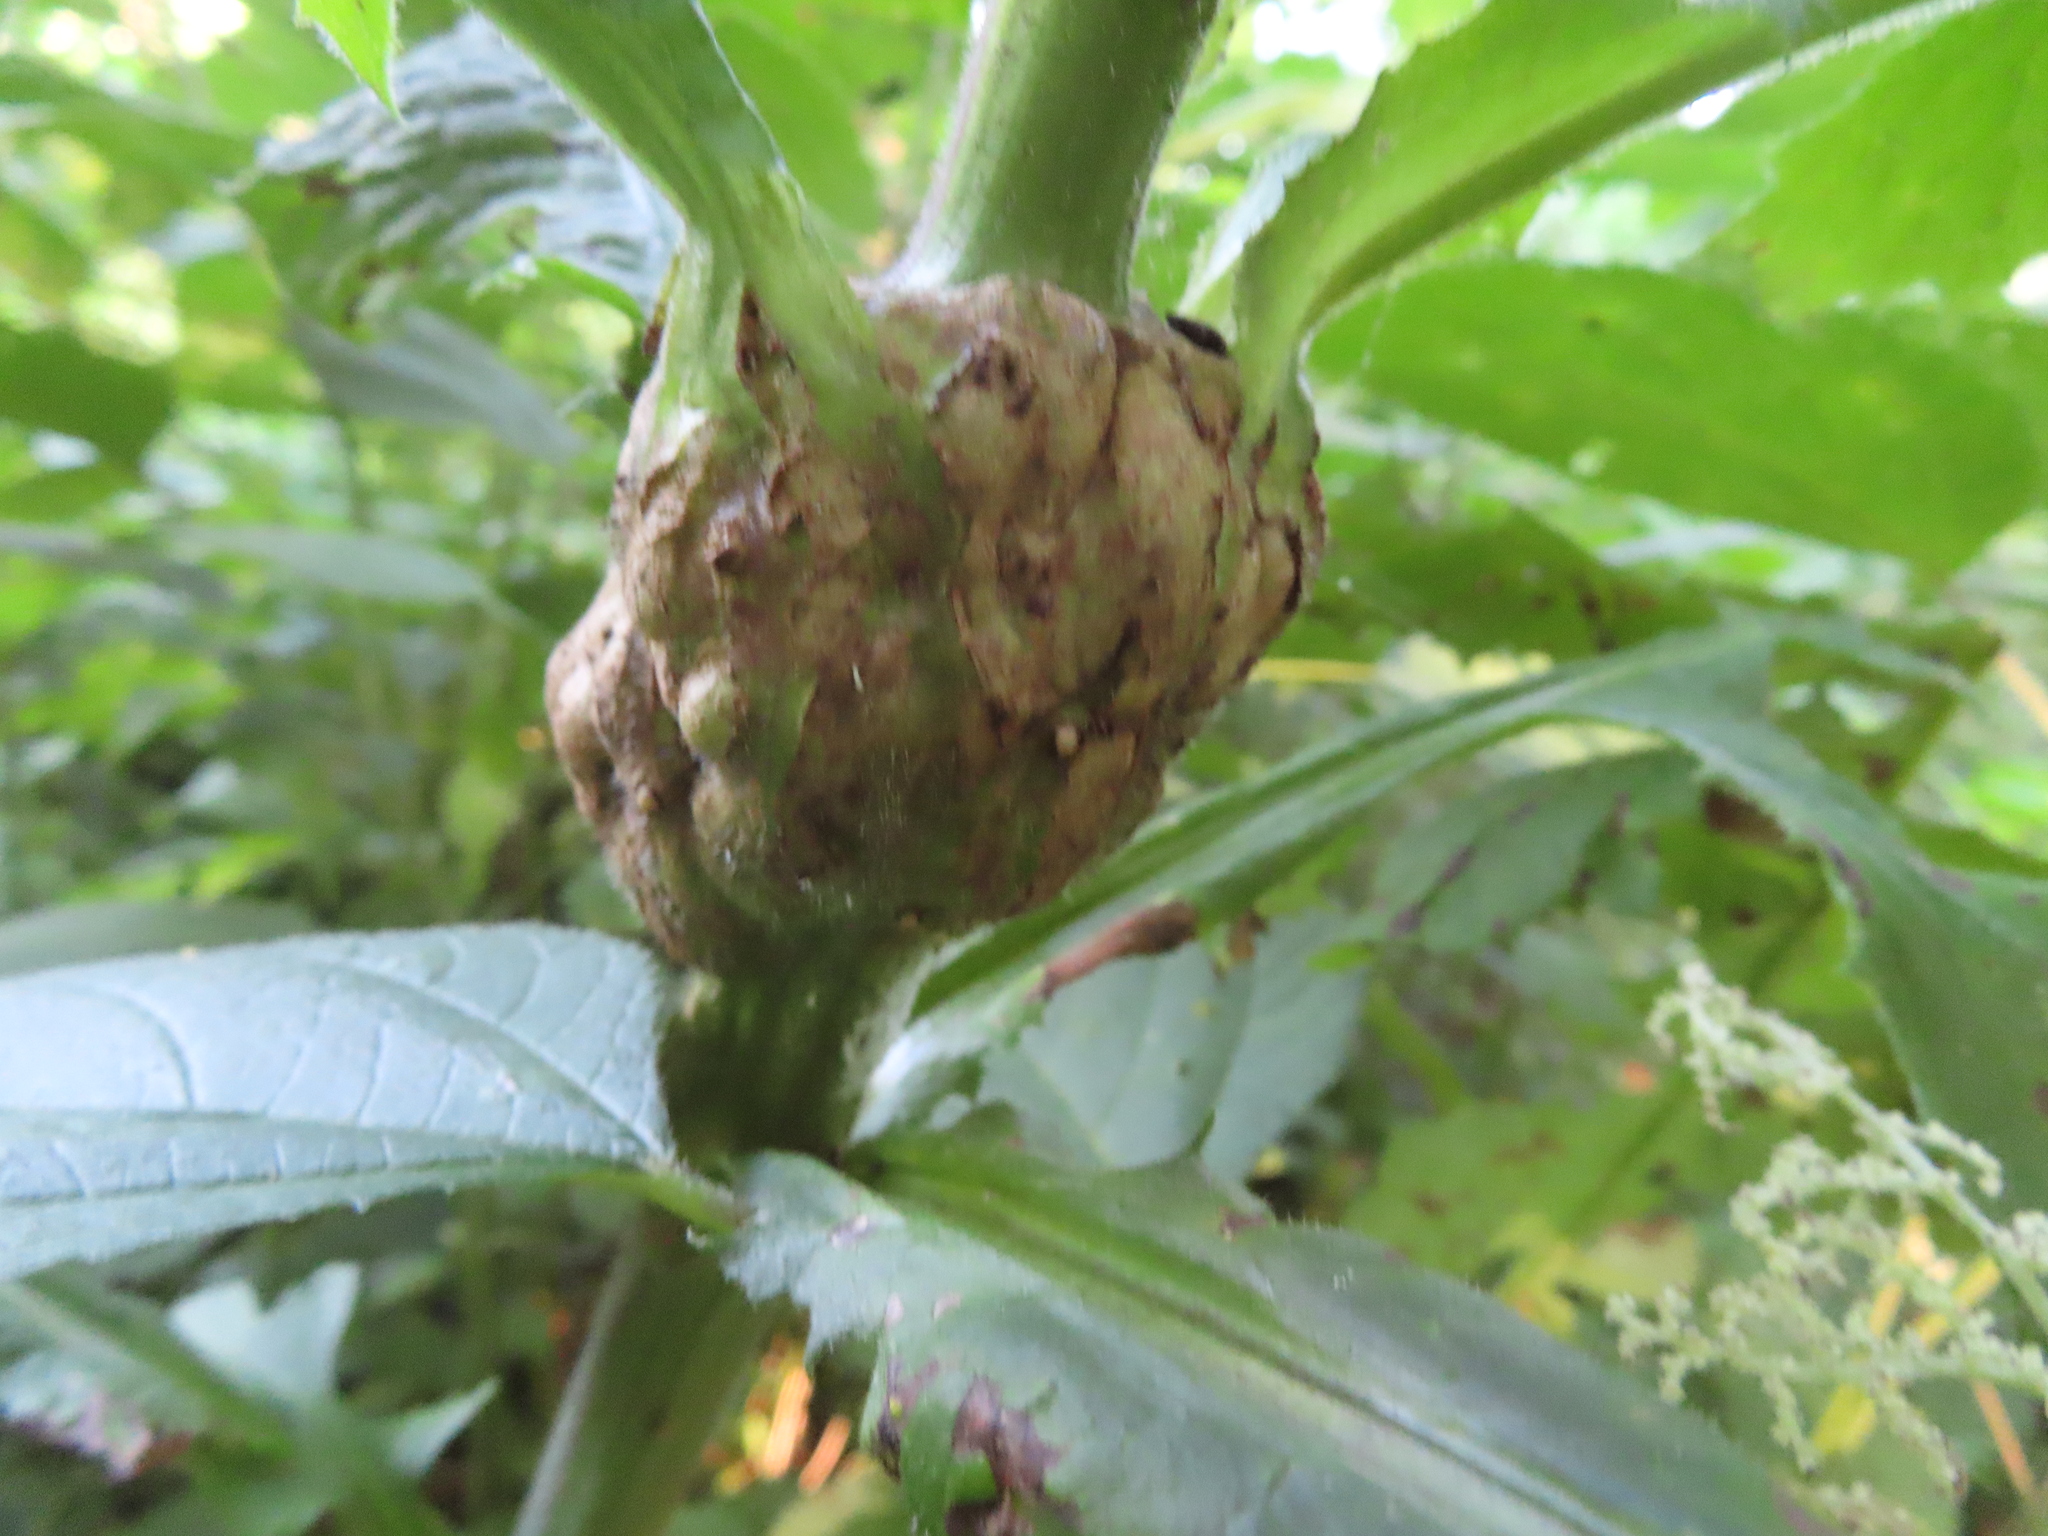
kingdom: Animalia
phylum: Arthropoda
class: Insecta
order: Hymenoptera
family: Cynipidae
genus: Aulacidea
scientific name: Aulacidea
